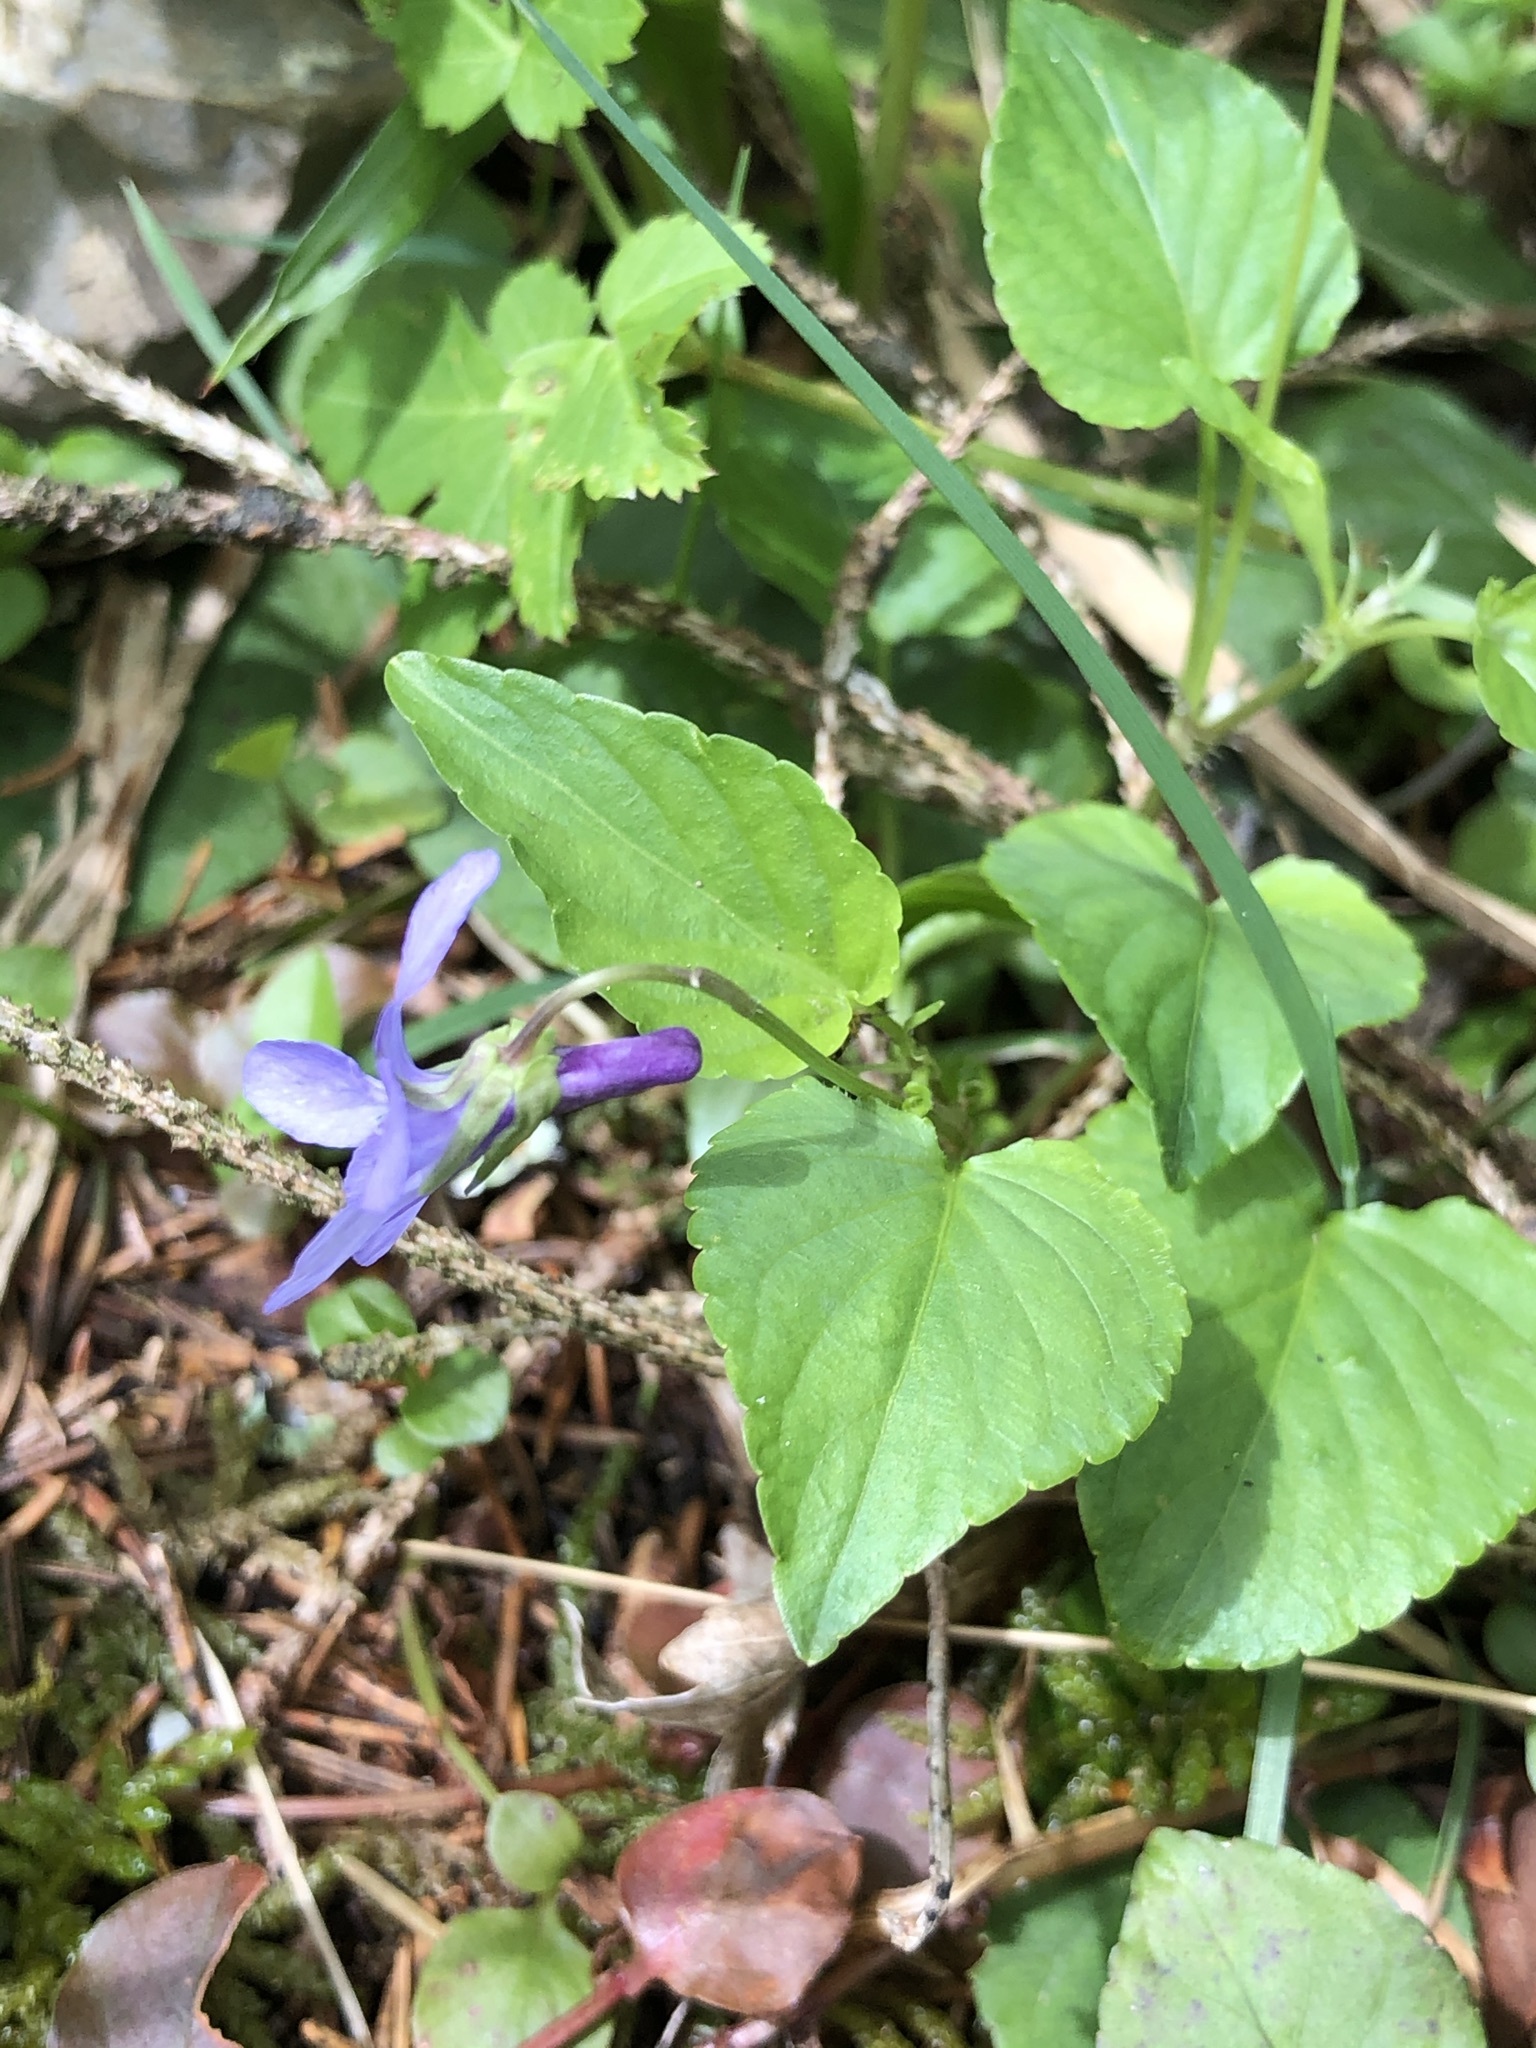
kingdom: Plantae
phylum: Tracheophyta
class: Magnoliopsida
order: Malpighiales
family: Violaceae
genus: Viola
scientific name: Viola reichenbachiana
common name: Early dog-violet
